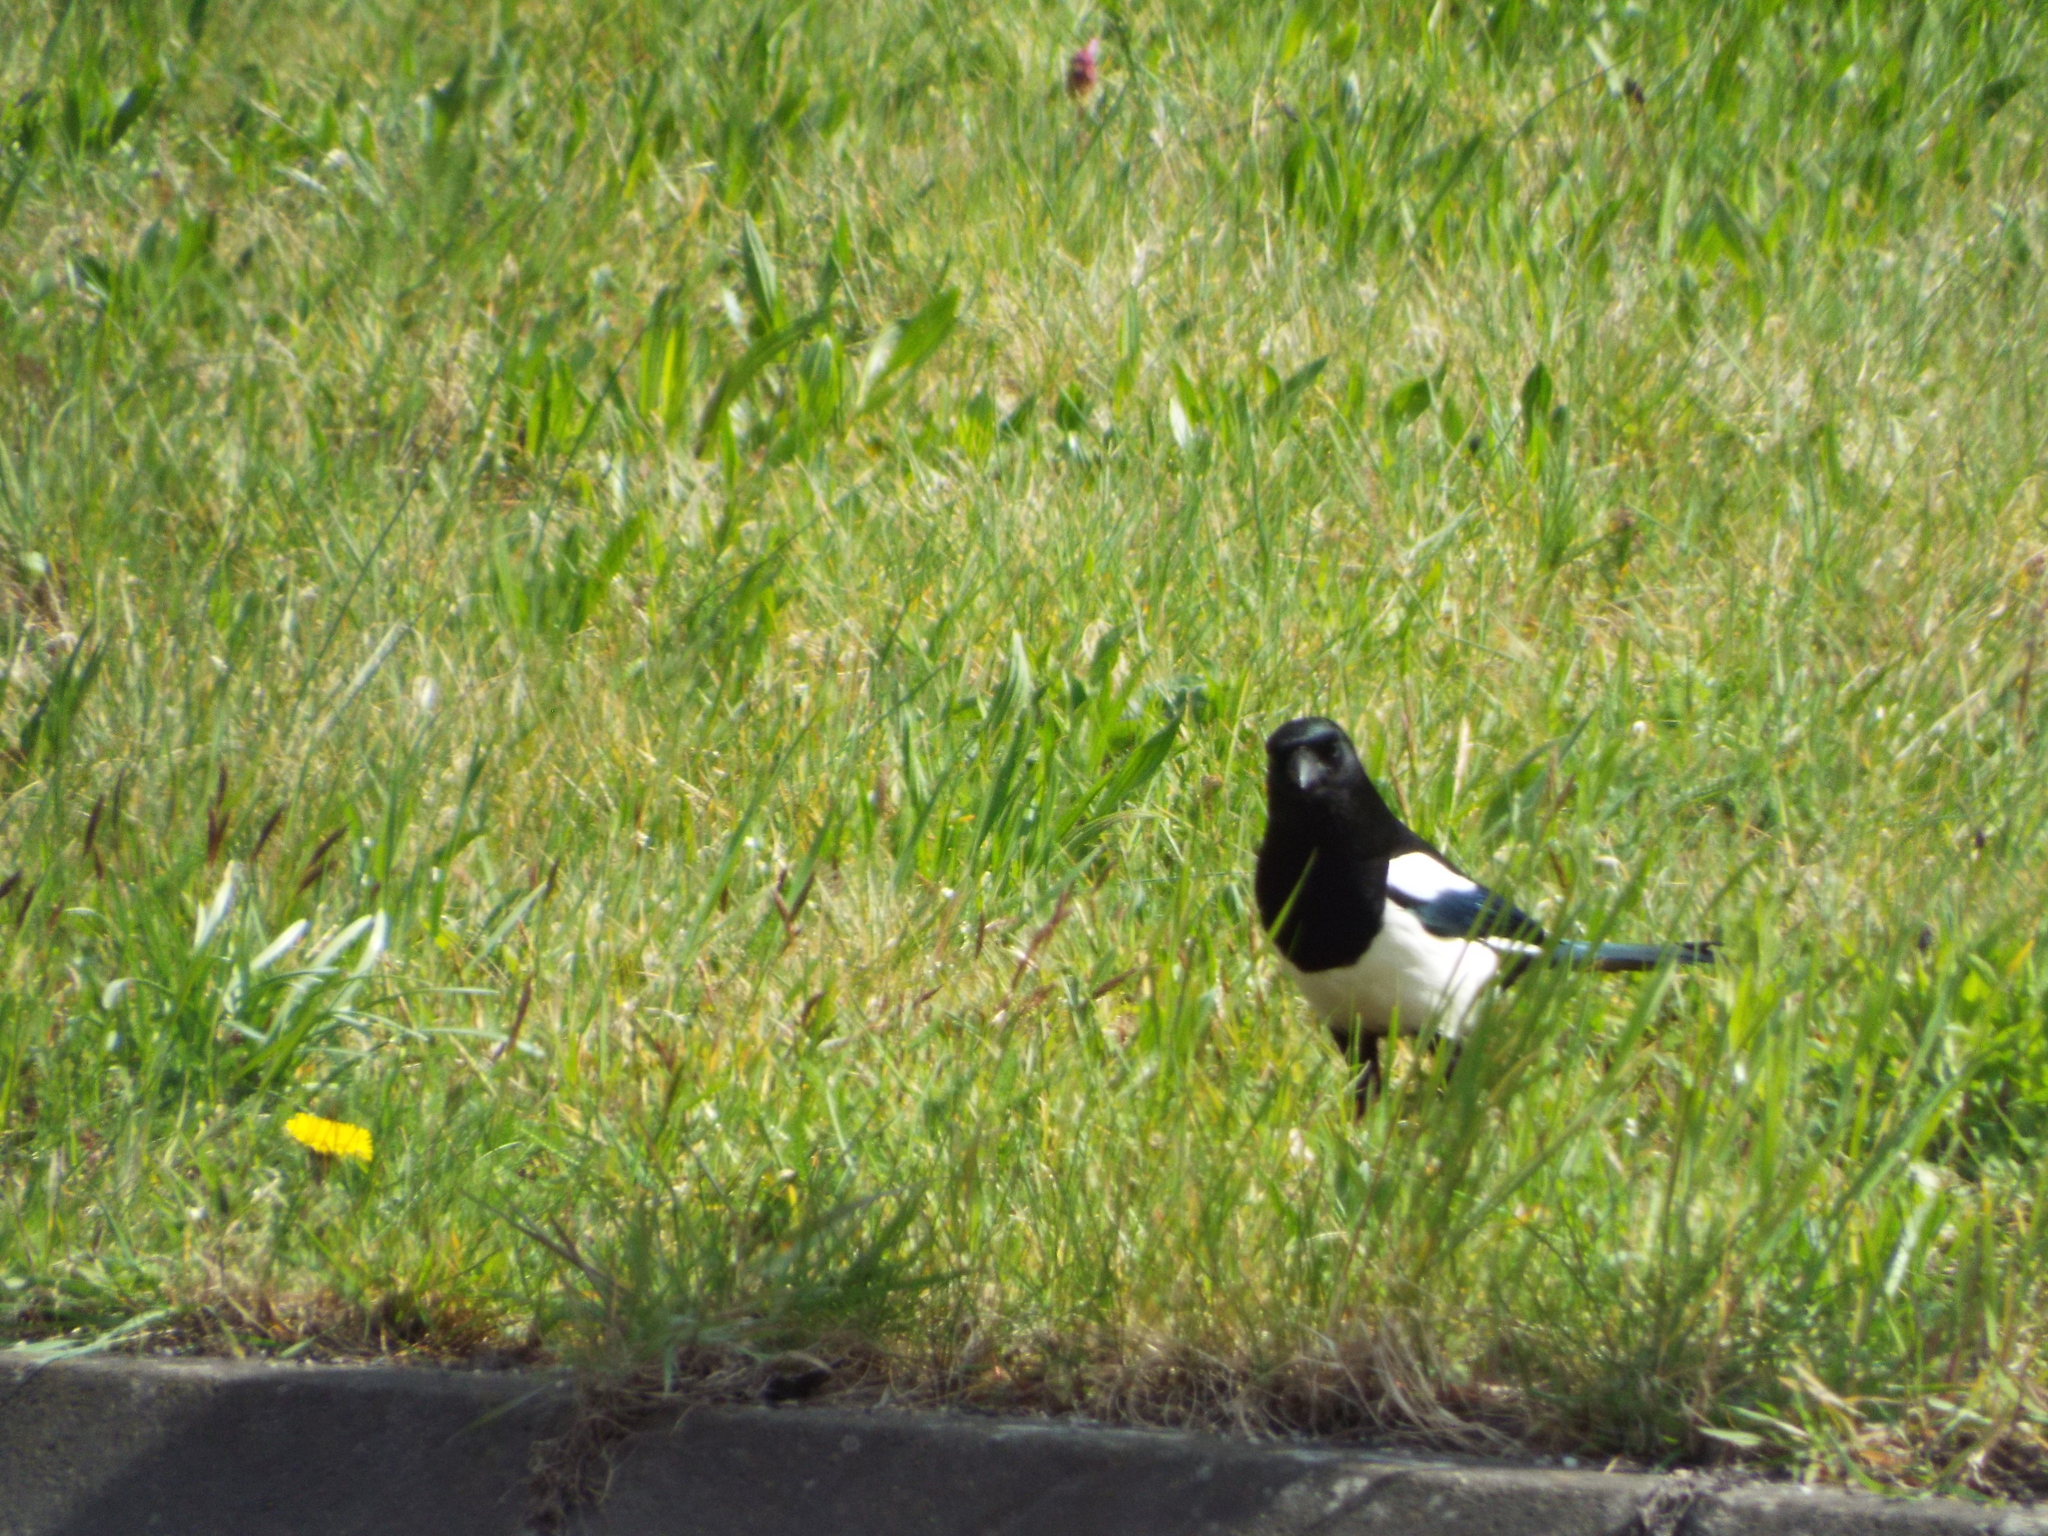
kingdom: Animalia
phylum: Chordata
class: Aves
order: Passeriformes
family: Corvidae
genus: Pica
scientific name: Pica pica
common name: Eurasian magpie
